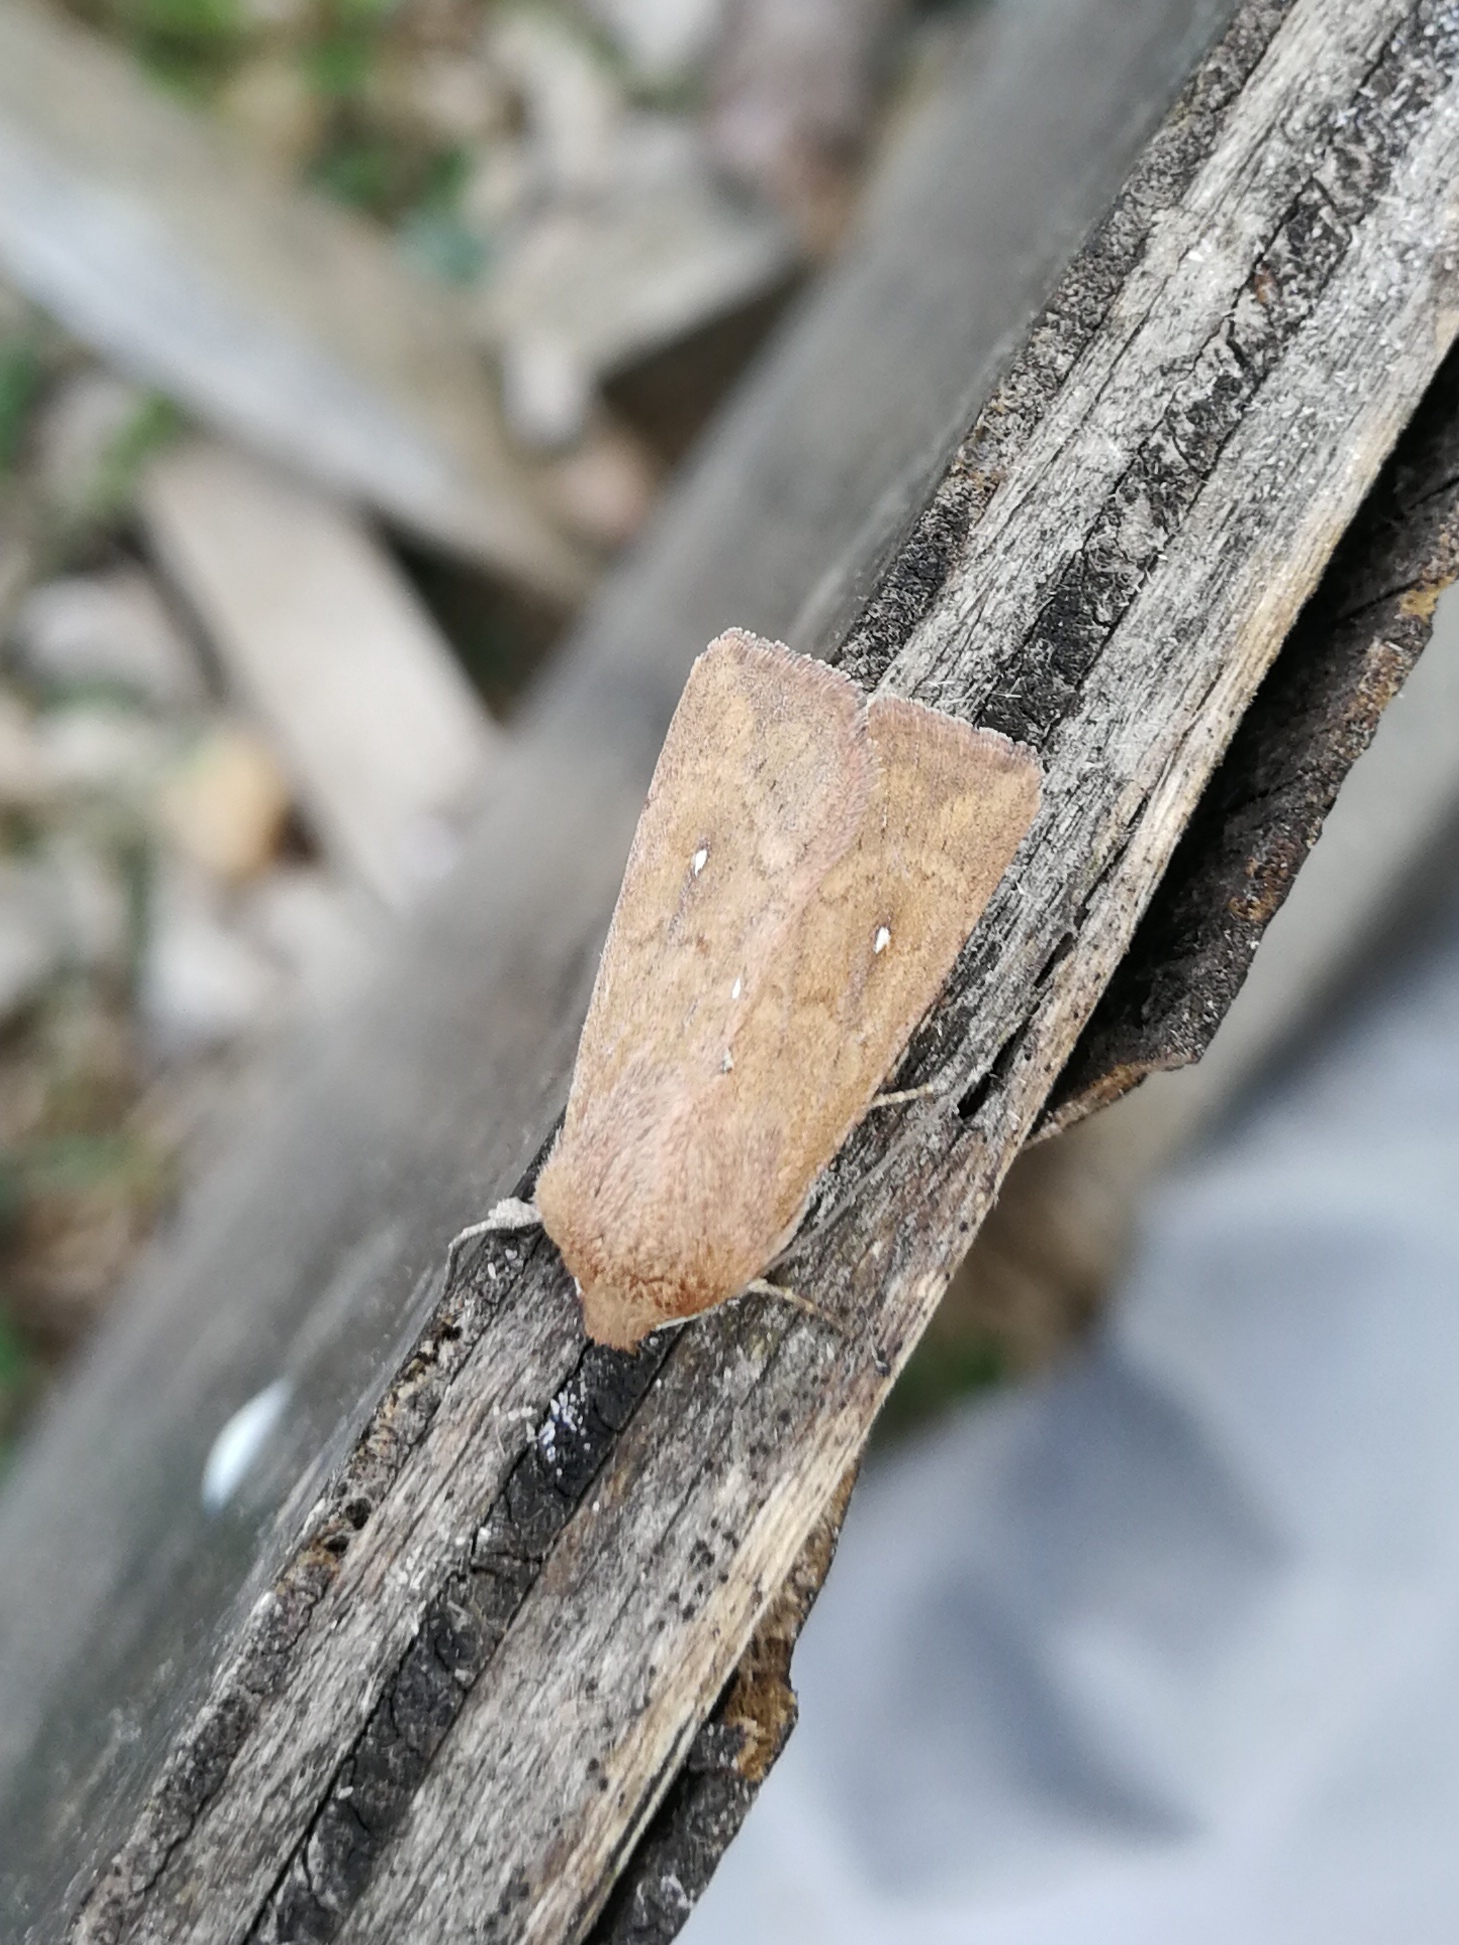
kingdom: Animalia
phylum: Arthropoda
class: Insecta
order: Lepidoptera
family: Noctuidae
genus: Mythimna
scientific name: Mythimna albipuncta
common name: White-point
